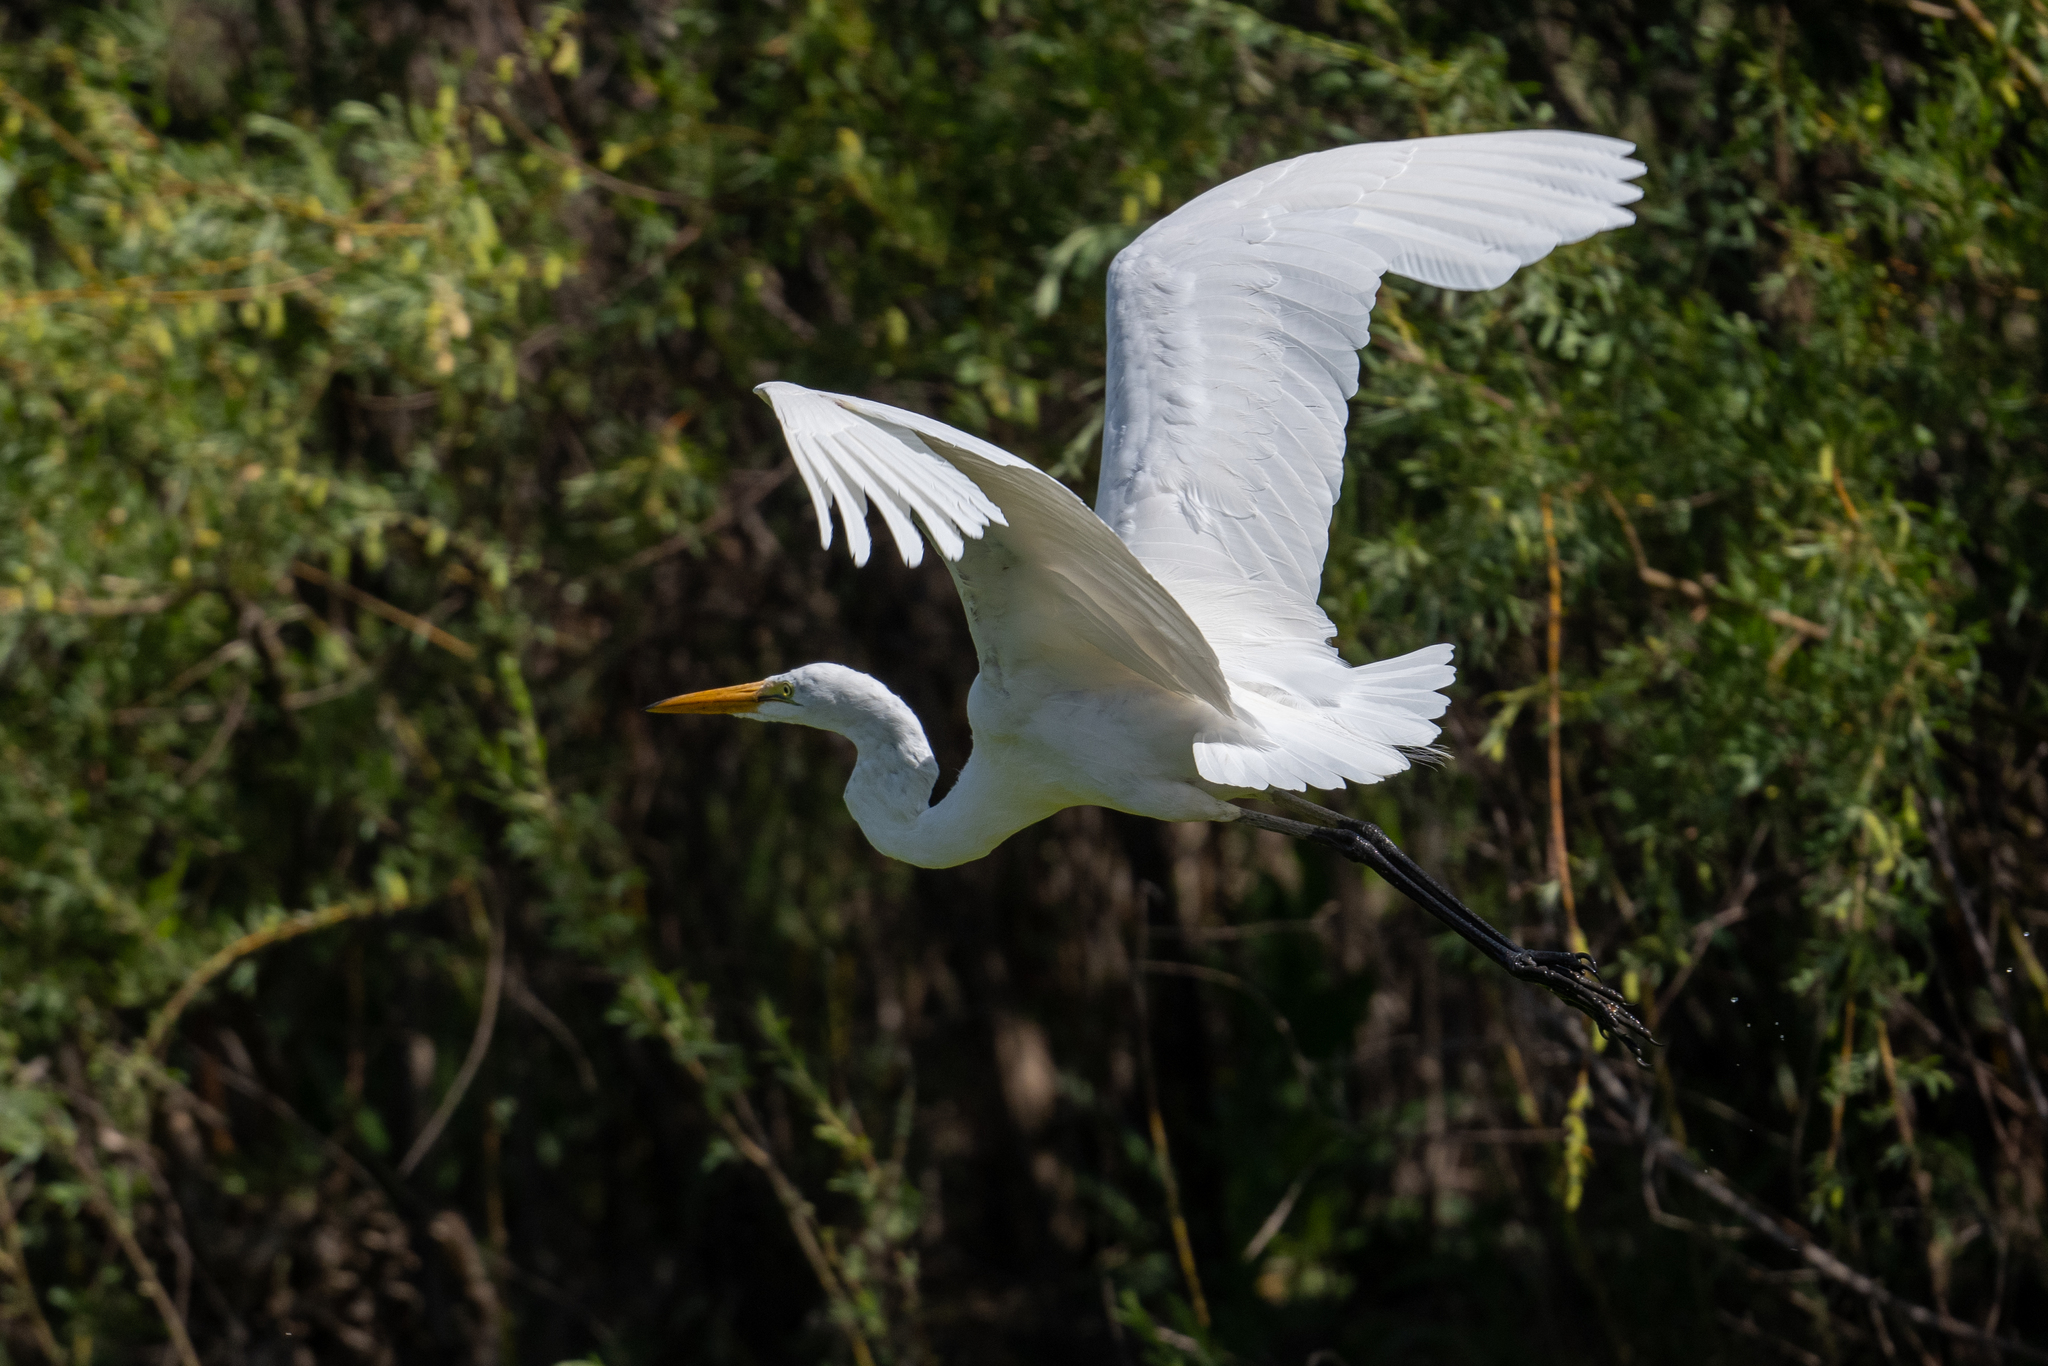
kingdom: Animalia
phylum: Chordata
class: Aves
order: Pelecaniformes
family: Ardeidae
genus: Ardea
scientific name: Ardea alba
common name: Great egret
